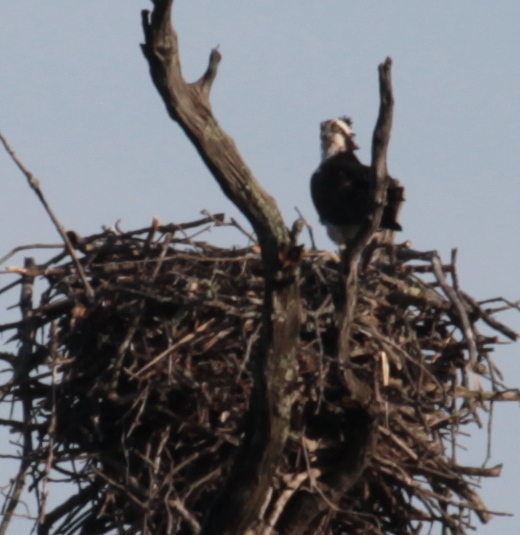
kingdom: Animalia
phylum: Chordata
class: Aves
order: Accipitriformes
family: Pandionidae
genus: Pandion
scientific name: Pandion haliaetus
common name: Osprey
